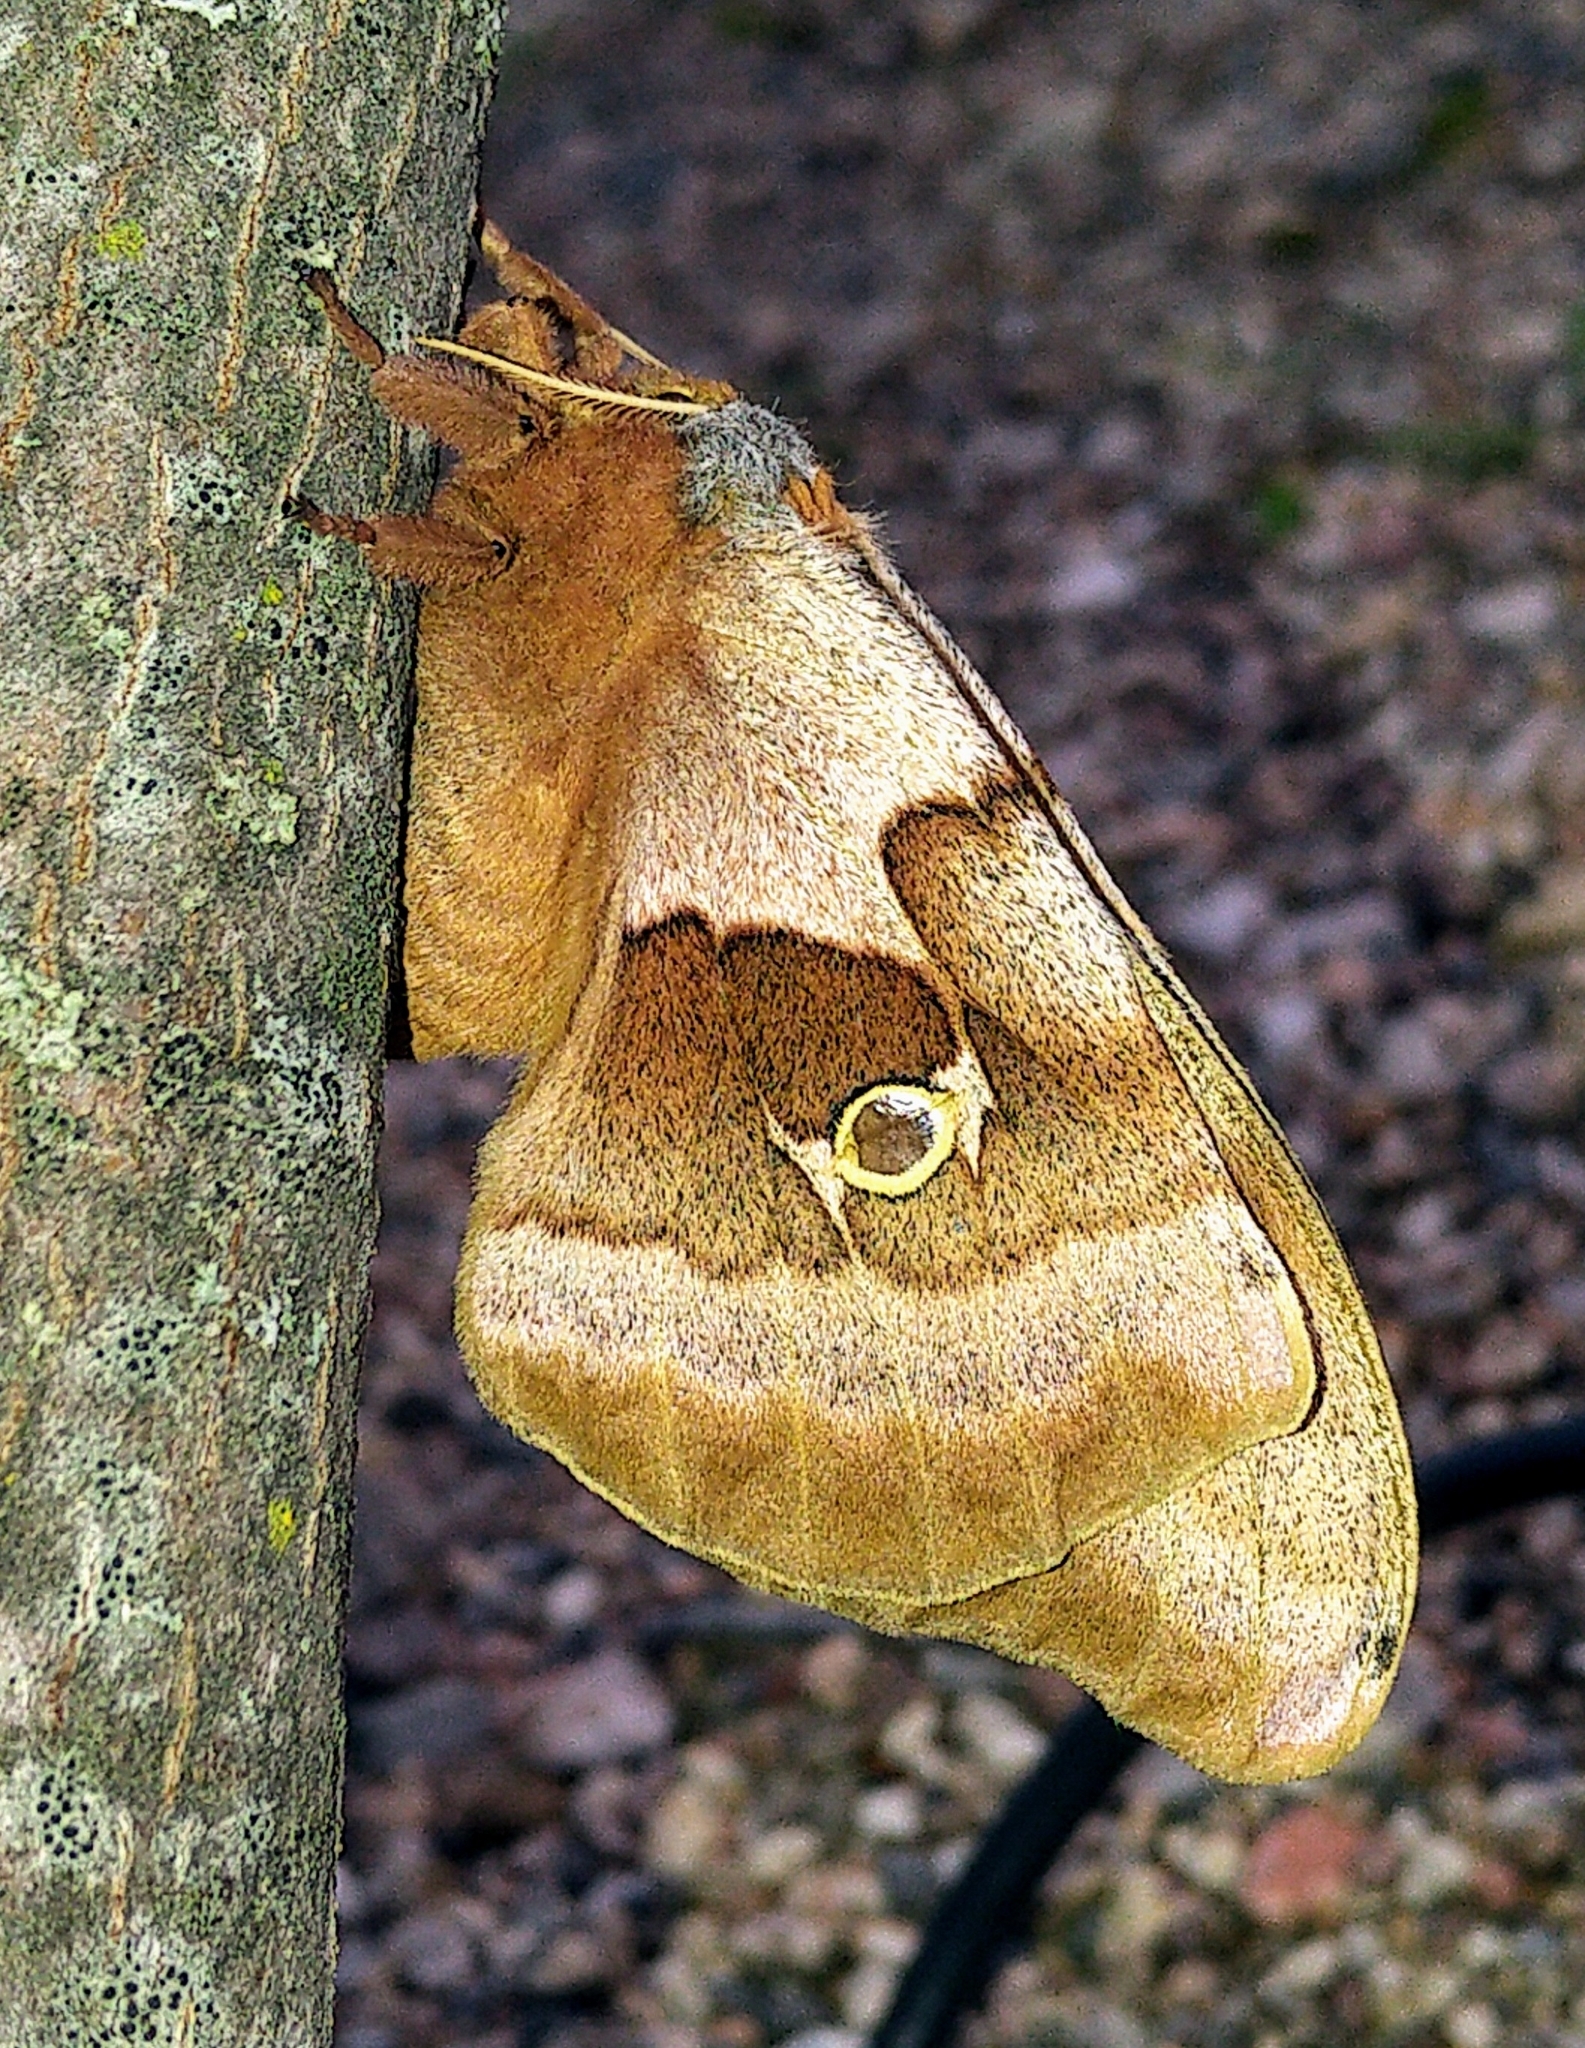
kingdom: Animalia
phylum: Arthropoda
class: Insecta
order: Lepidoptera
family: Saturniidae
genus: Antheraea
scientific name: Antheraea polyphemus
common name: Polyphemus moth
